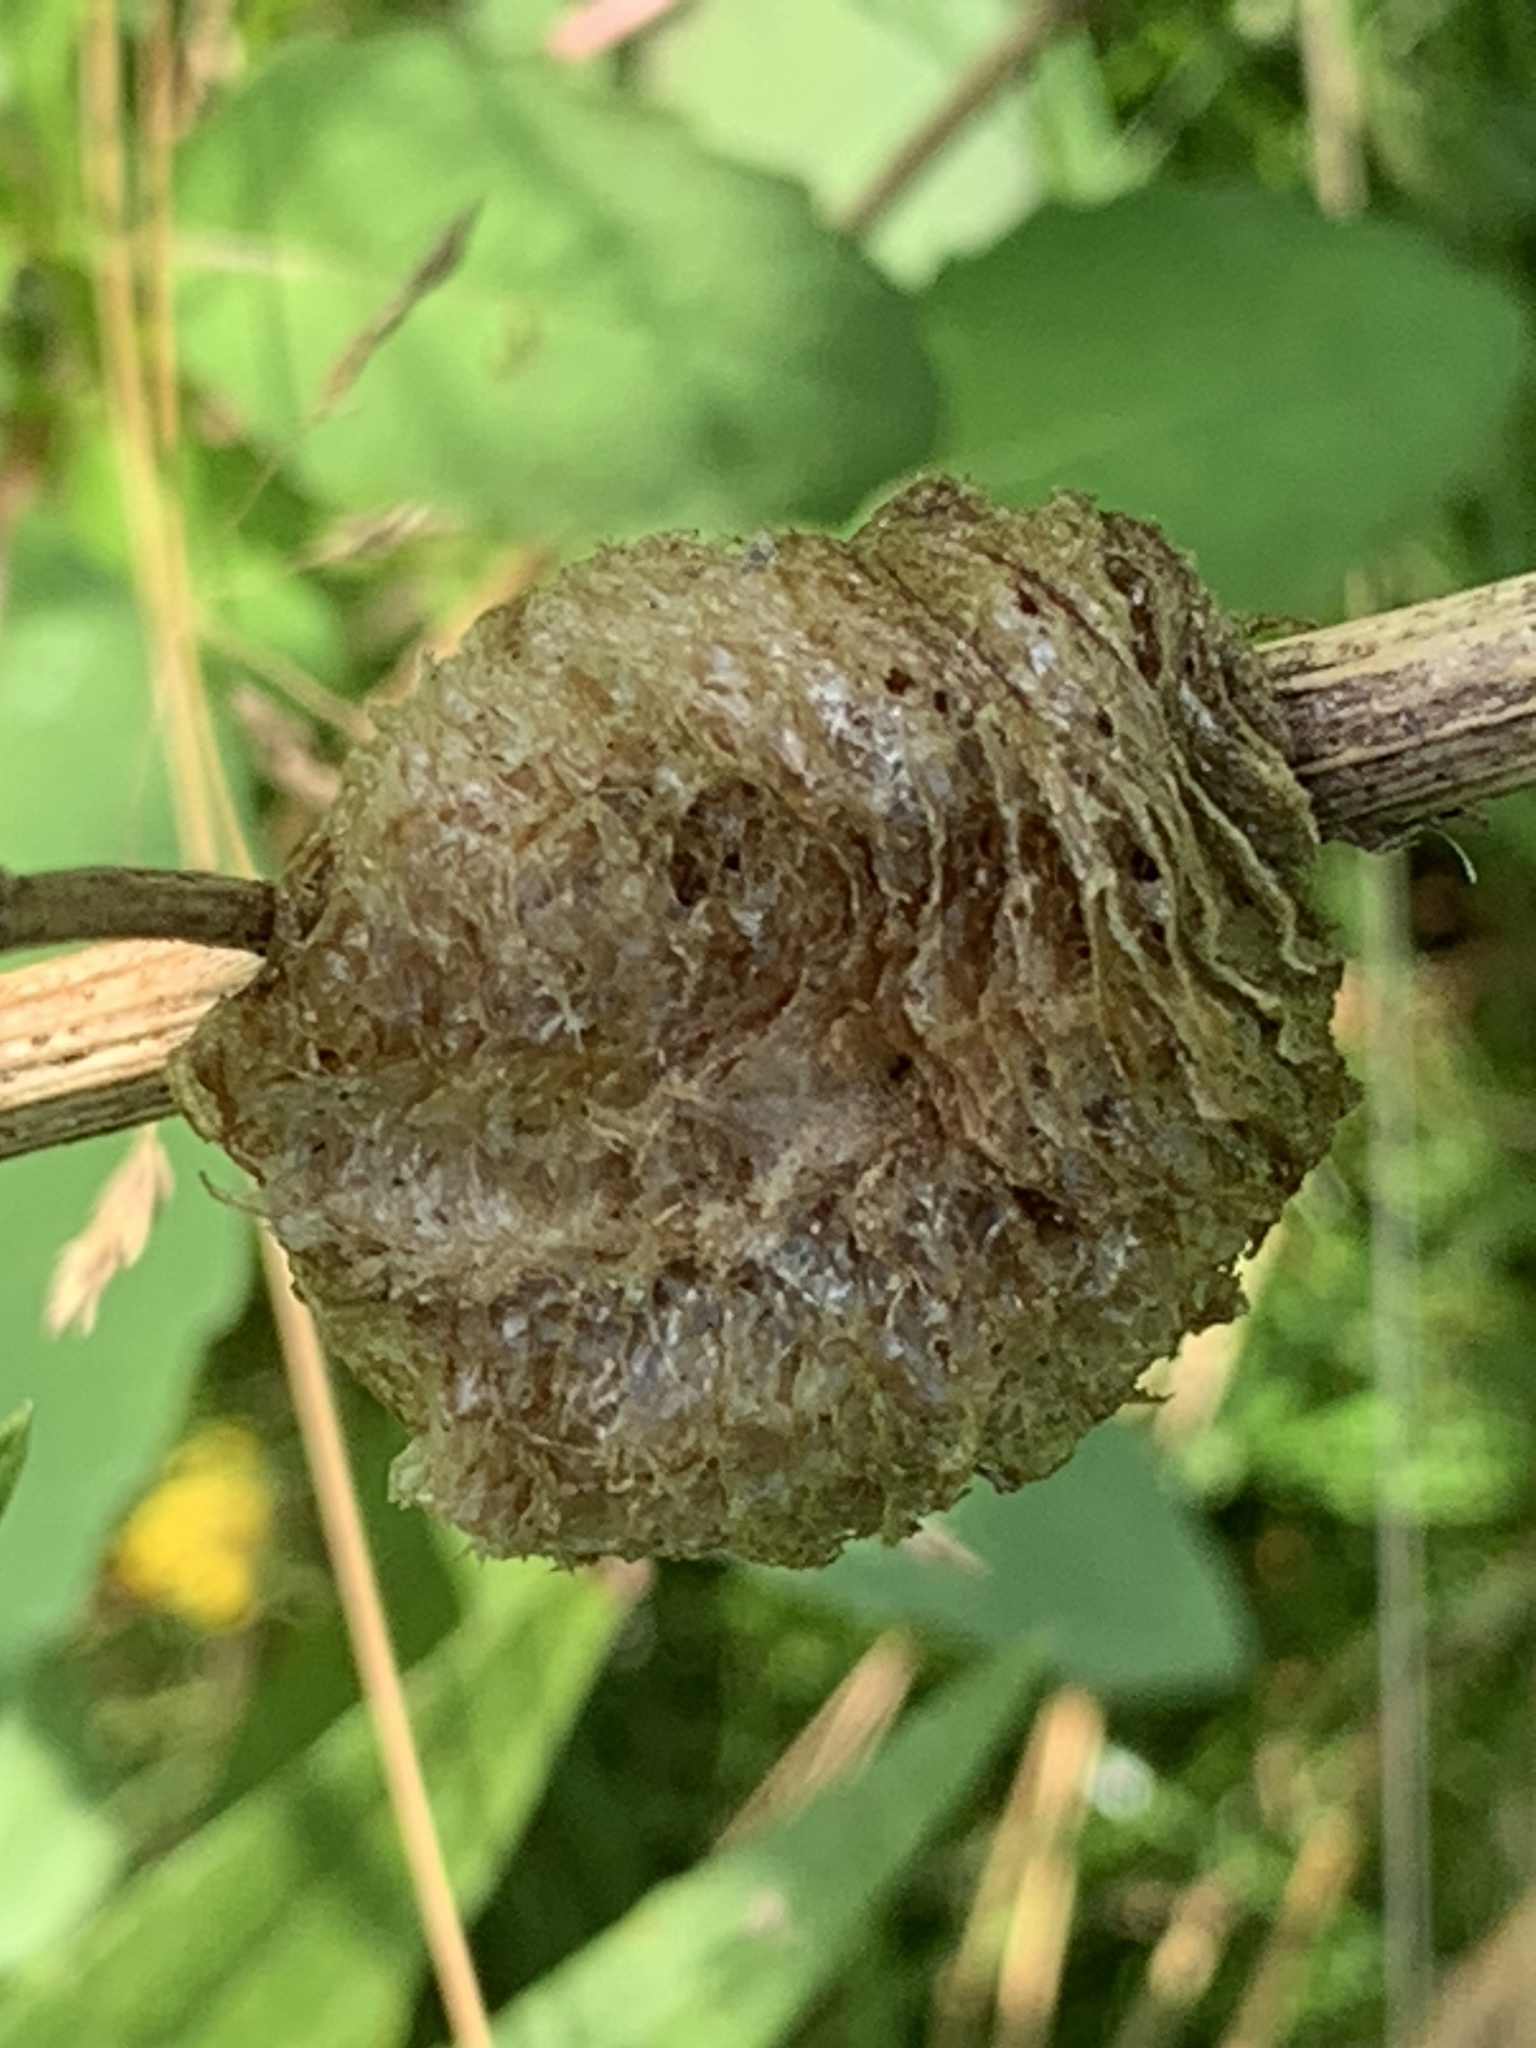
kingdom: Animalia
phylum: Arthropoda
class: Insecta
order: Mantodea
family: Mantidae
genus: Tenodera
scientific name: Tenodera sinensis
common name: Chinese mantis
